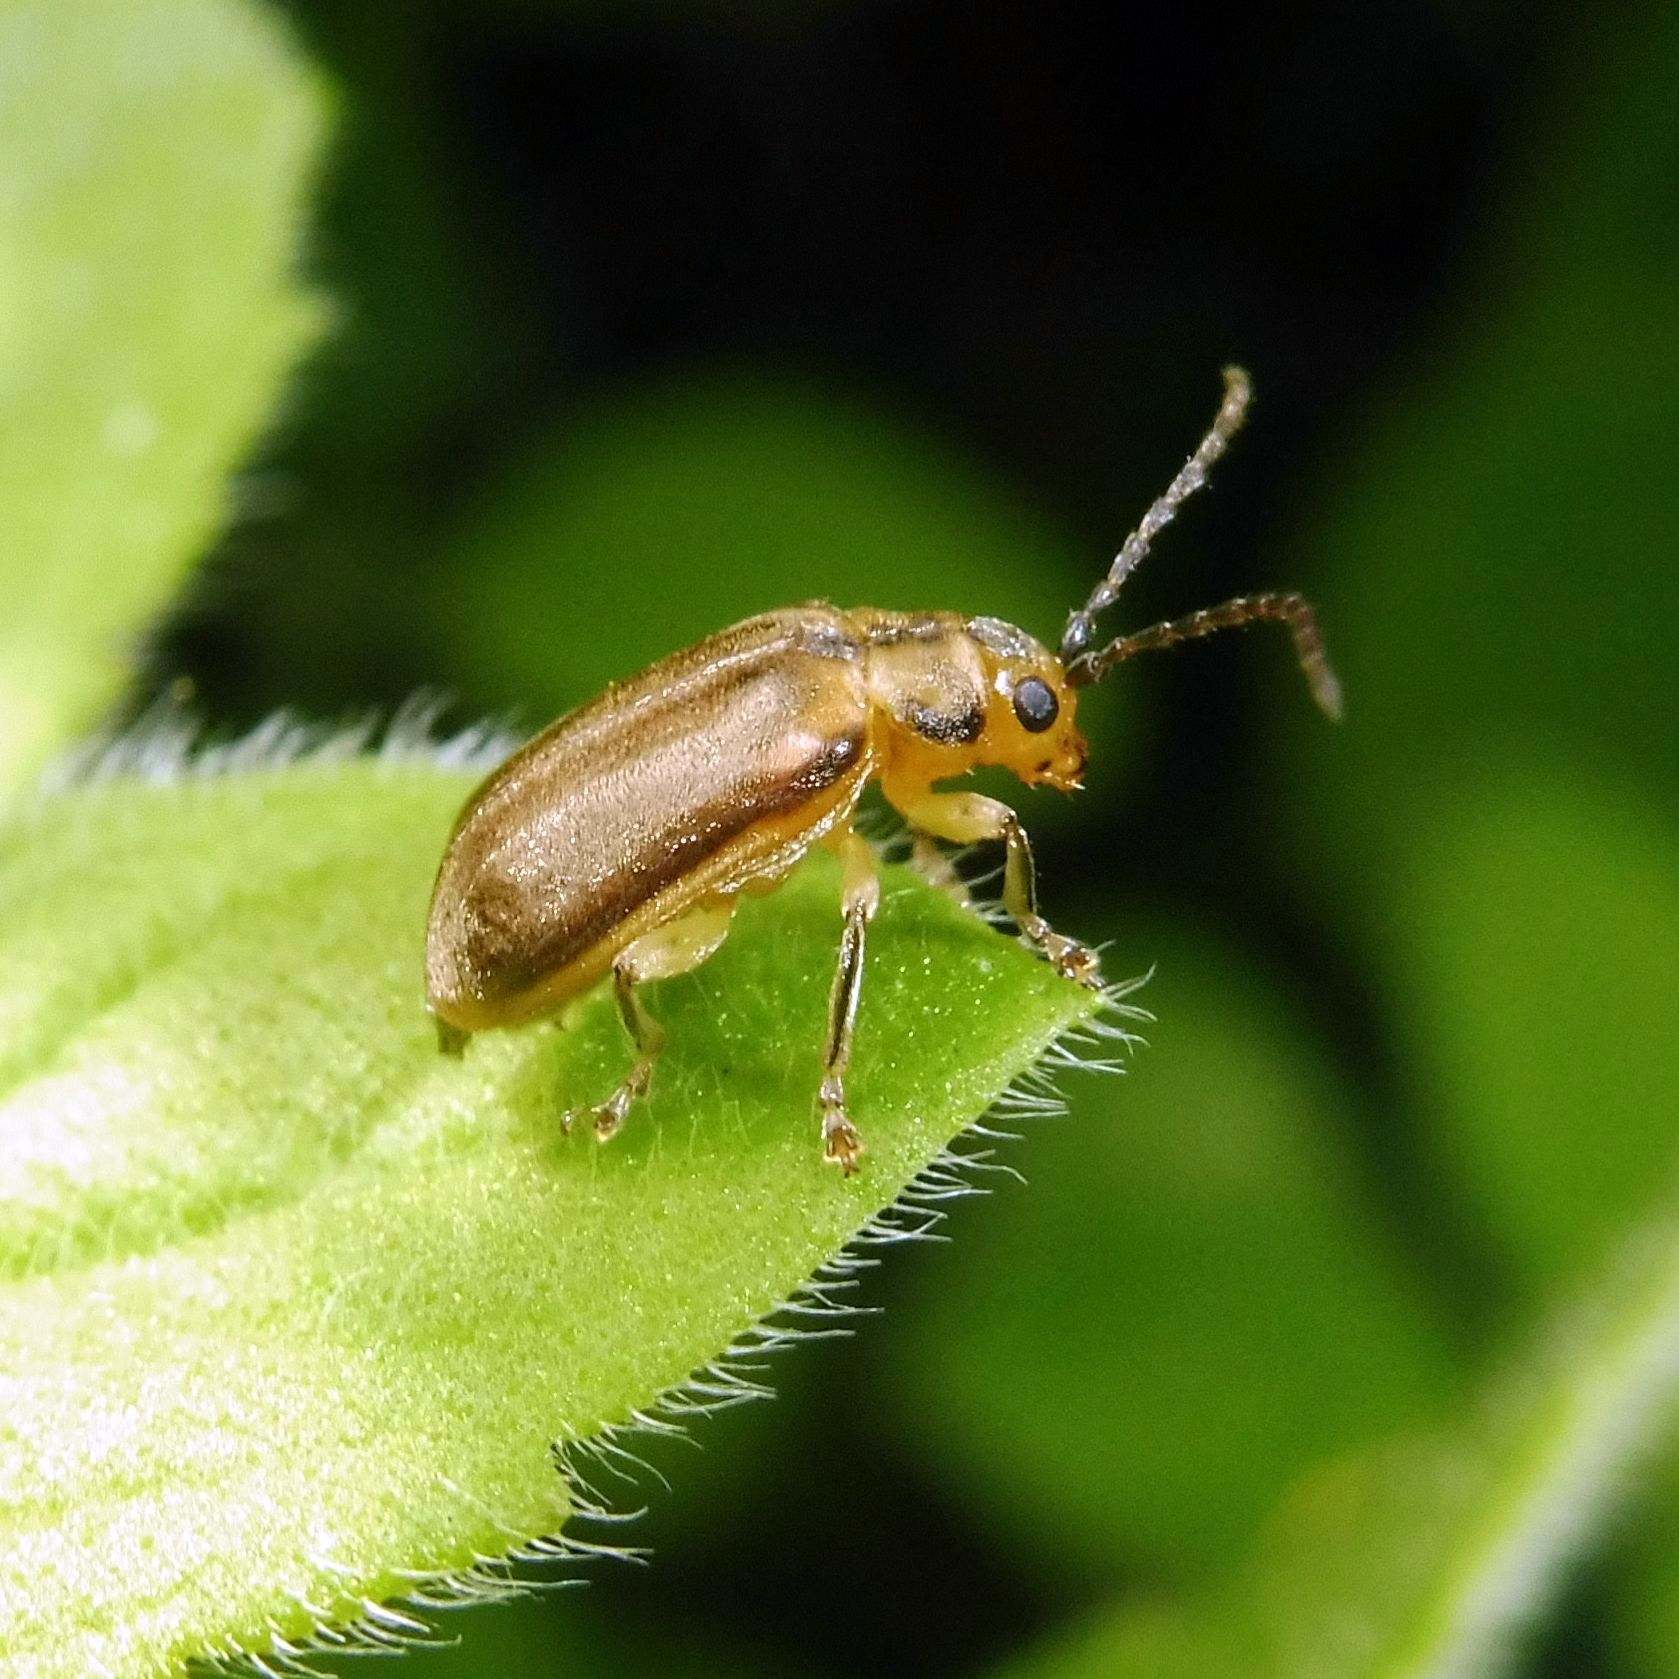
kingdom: Animalia
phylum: Arthropoda
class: Insecta
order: Coleoptera
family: Chrysomelidae
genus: Pyrrhalta
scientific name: Pyrrhalta viburni
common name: Guelder-rose leaf beetle
